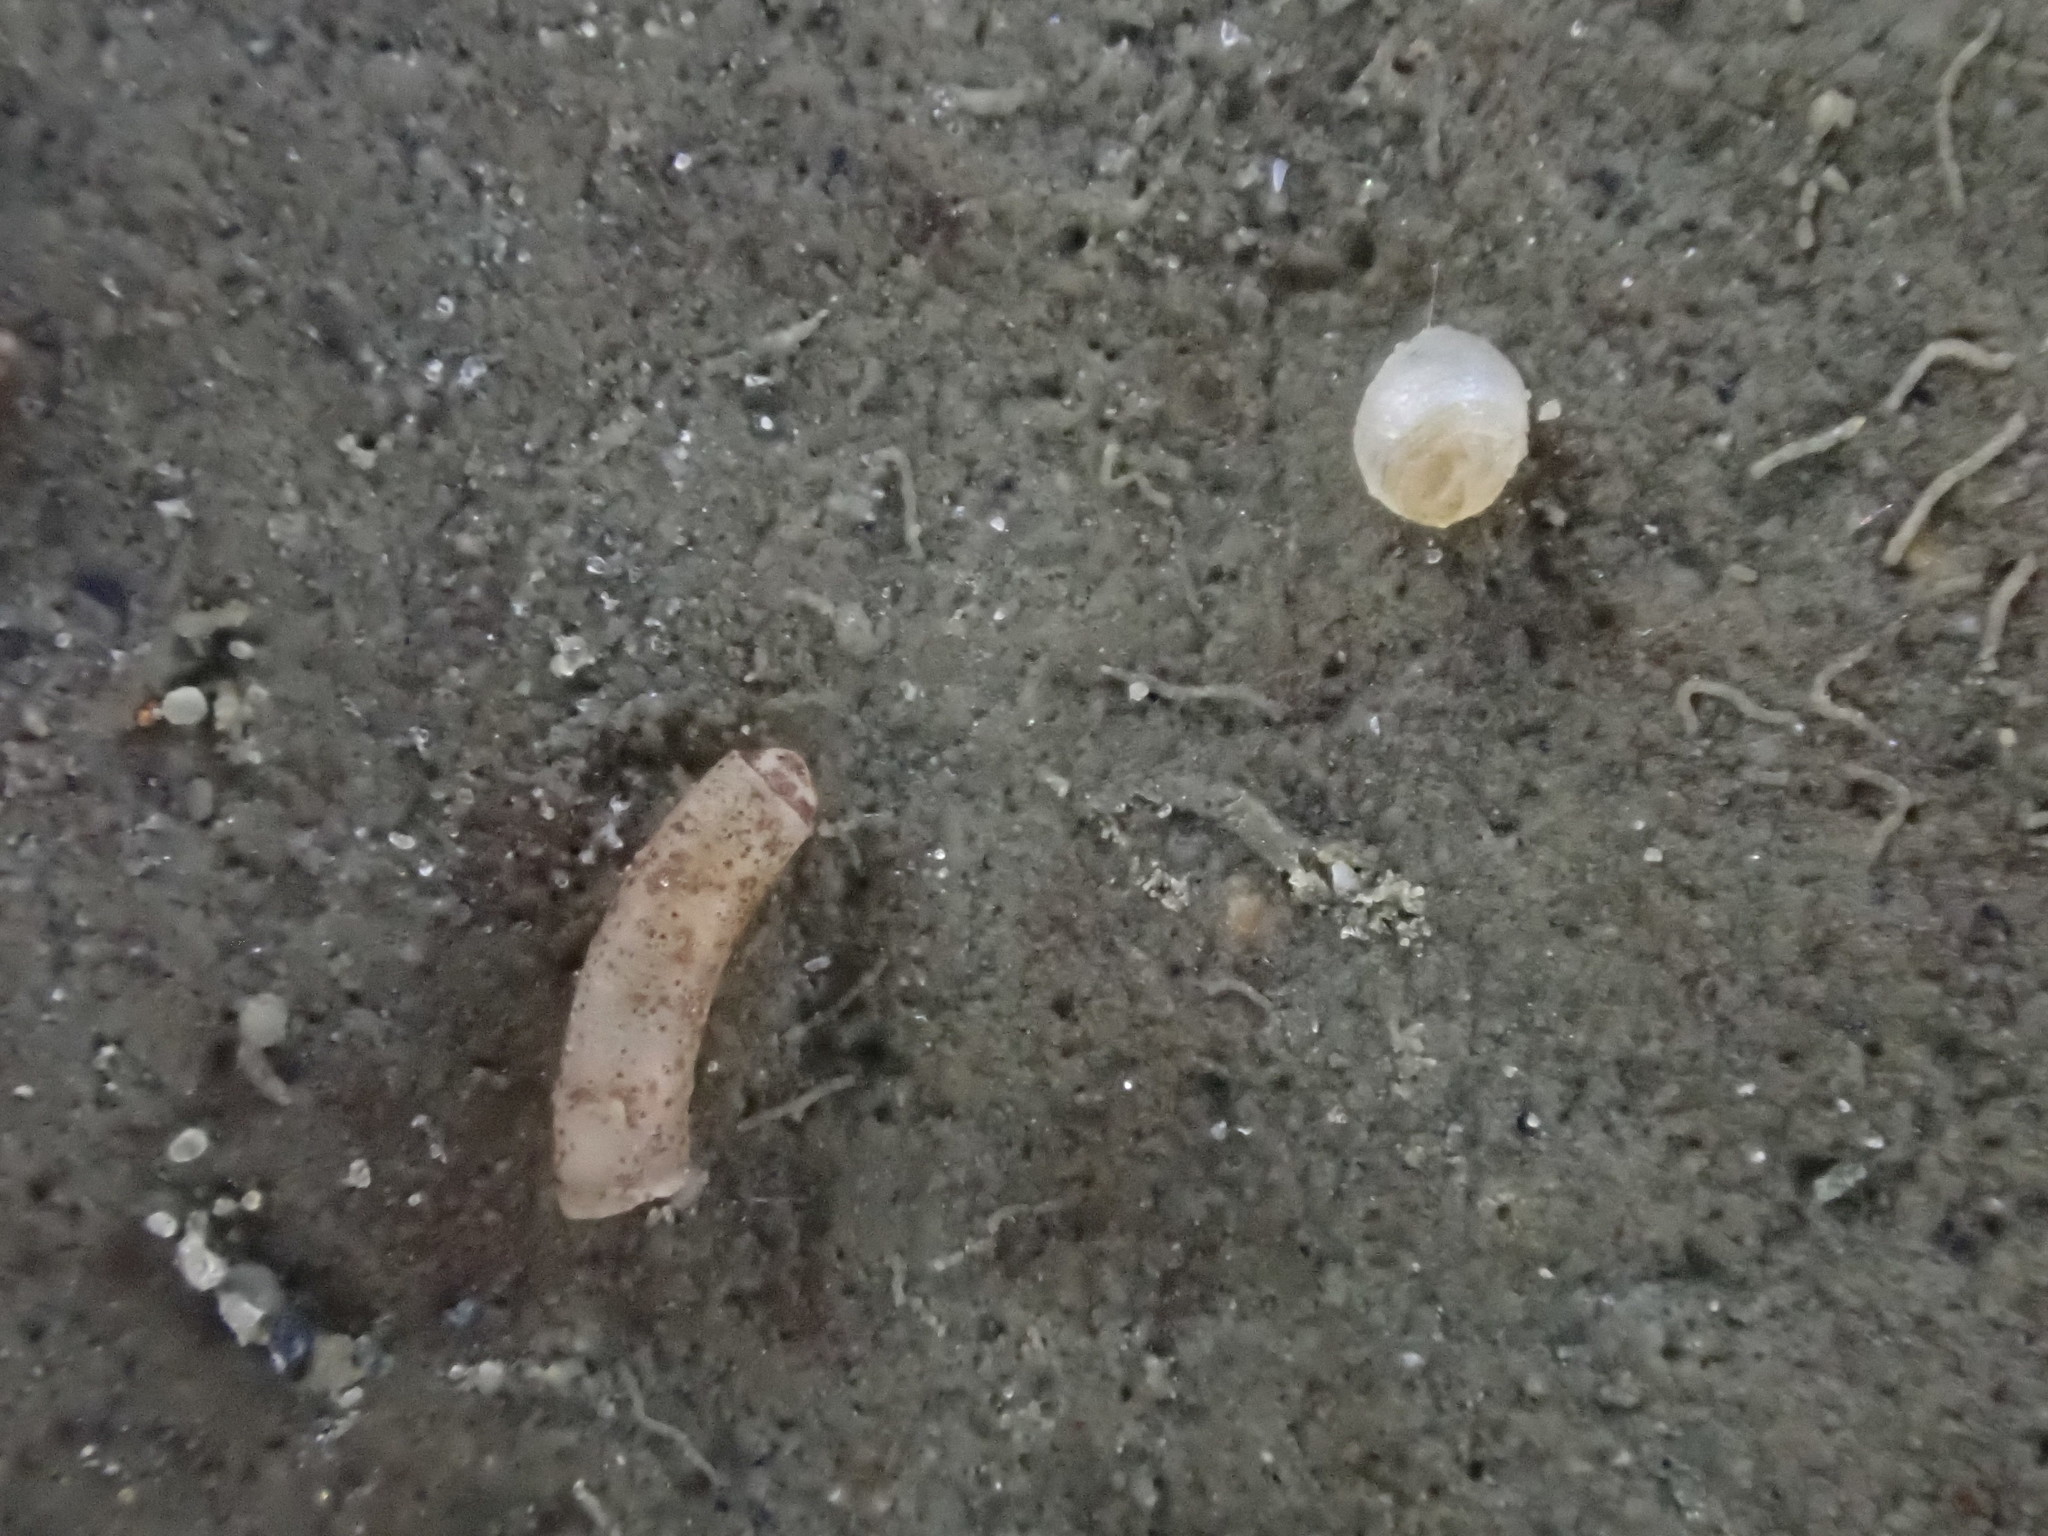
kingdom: Animalia
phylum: Mollusca
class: Gastropoda
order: Ellobiida
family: Ellobiidae
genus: Leuconopsis
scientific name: Leuconopsis obsoleta
